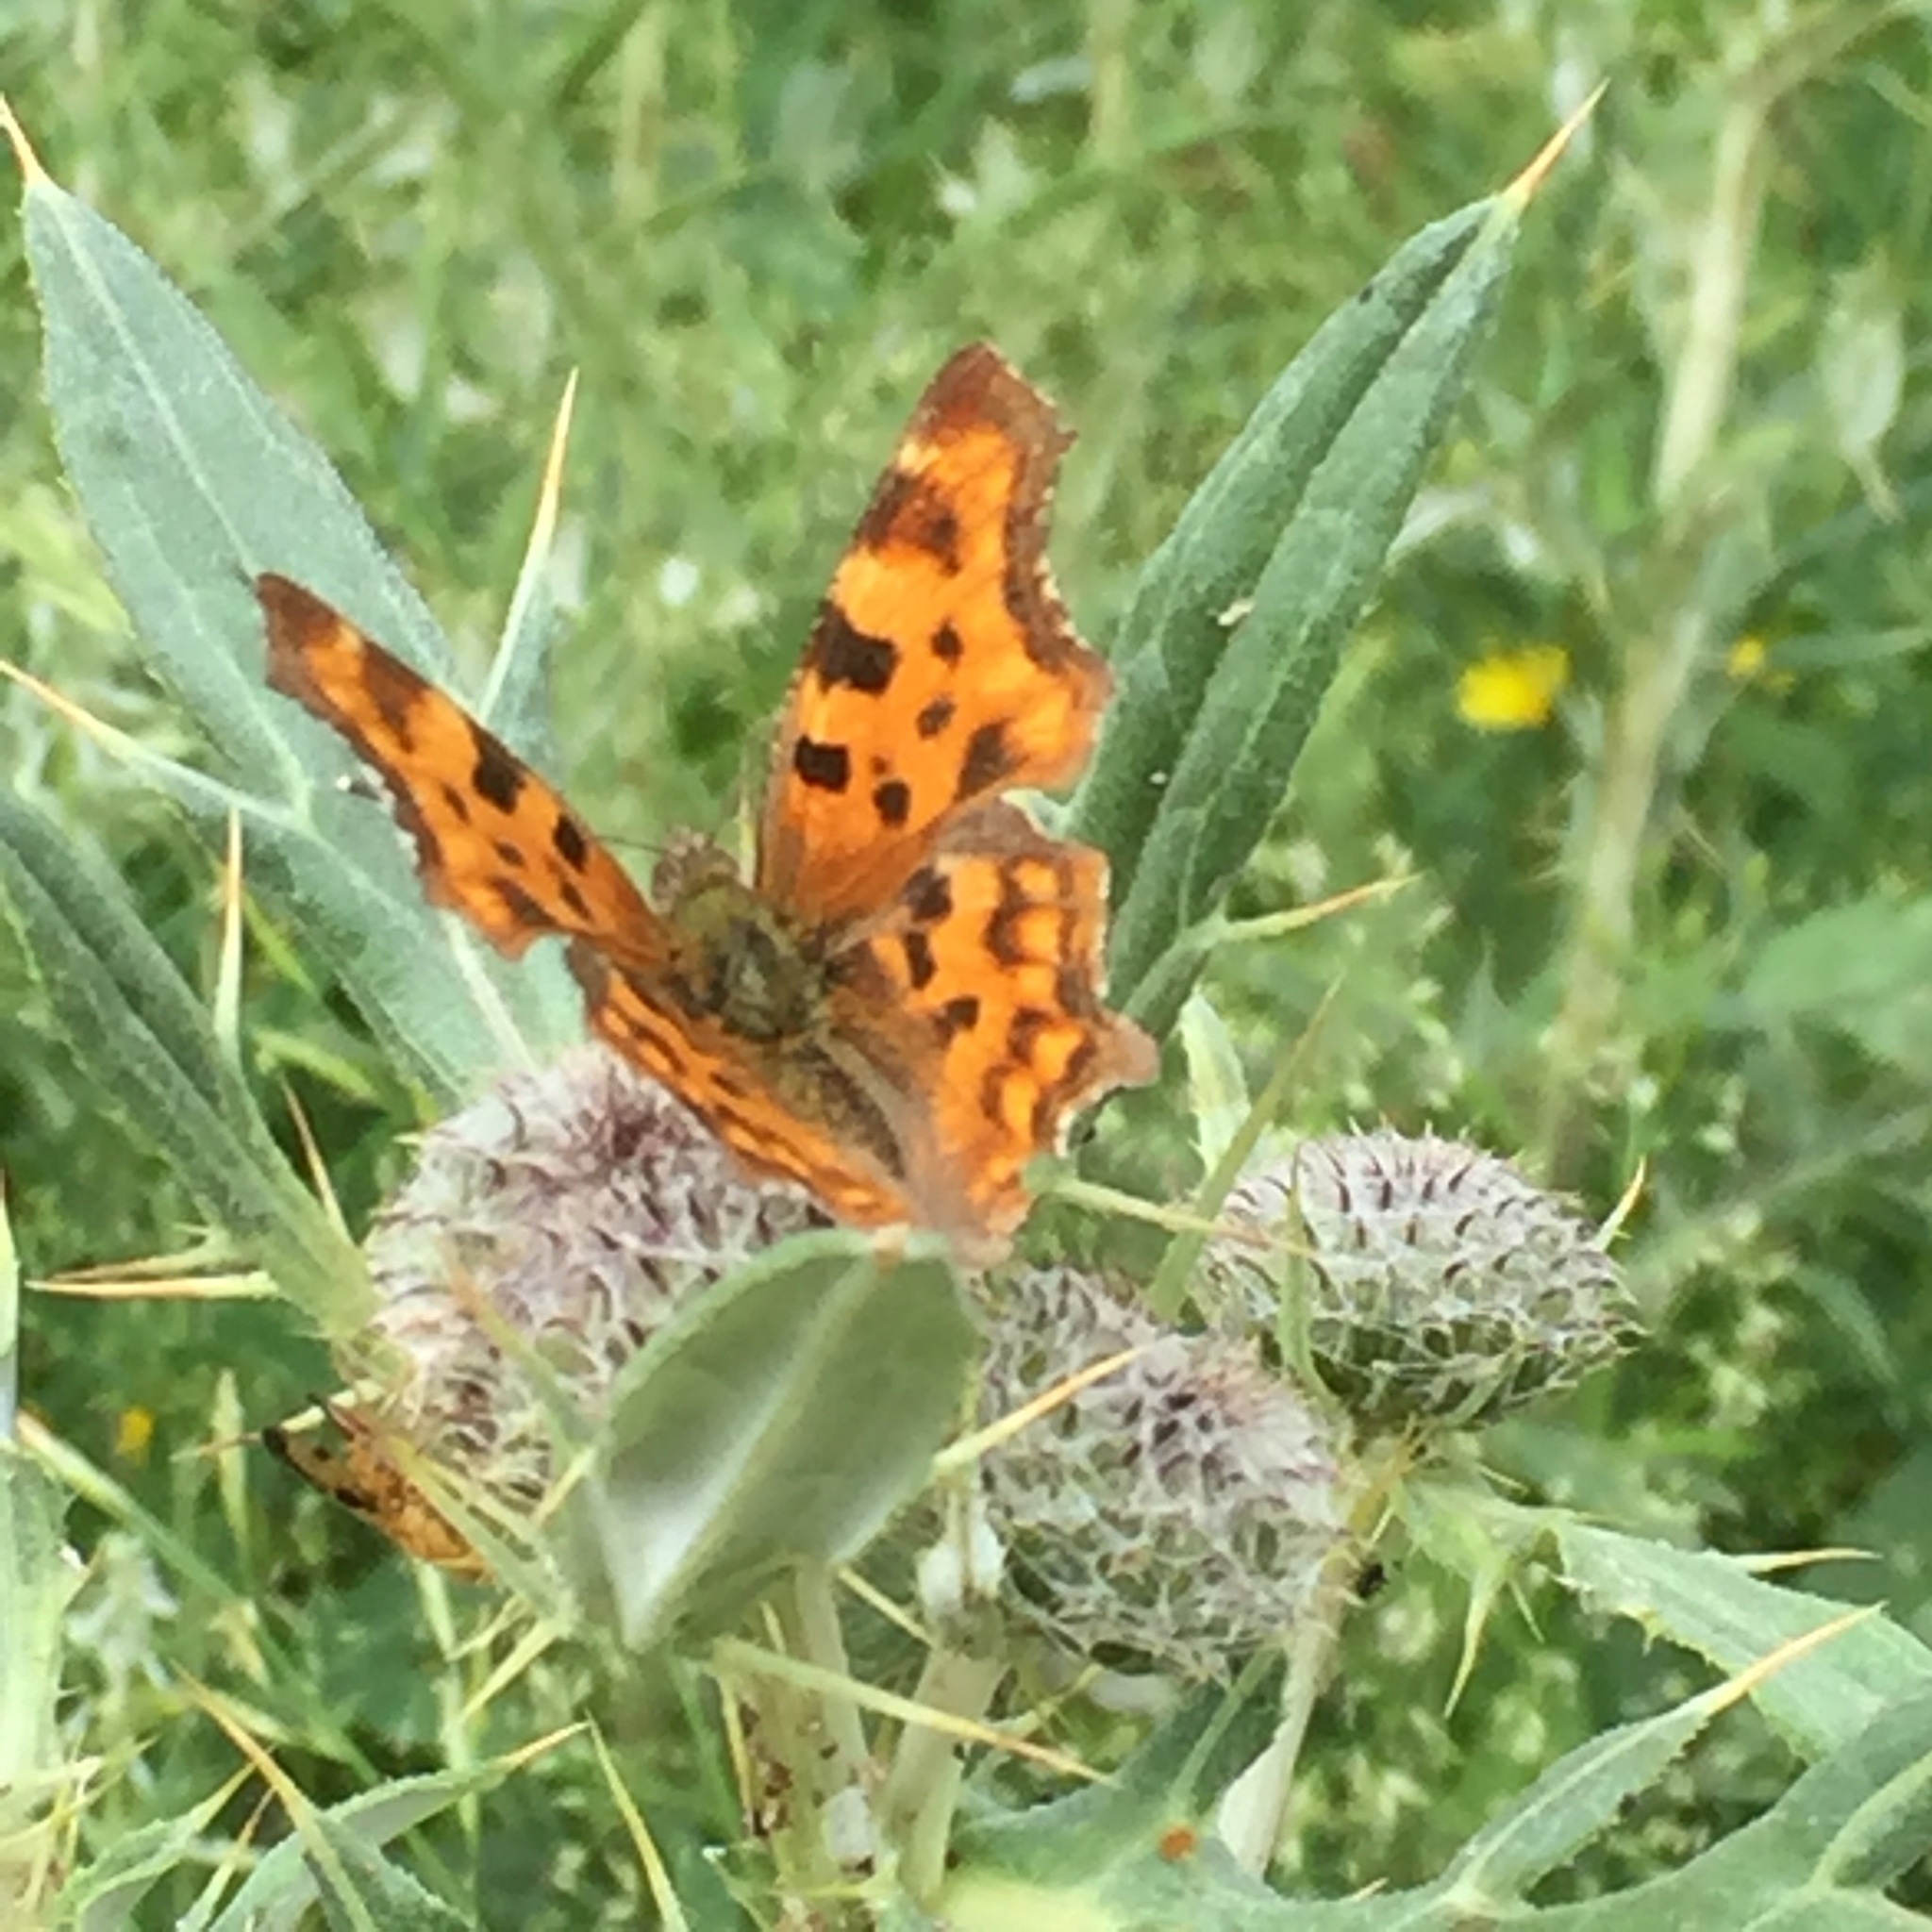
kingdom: Animalia
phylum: Arthropoda
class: Insecta
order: Lepidoptera
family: Nymphalidae
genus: Polygonia
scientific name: Polygonia c-album
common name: Comma
